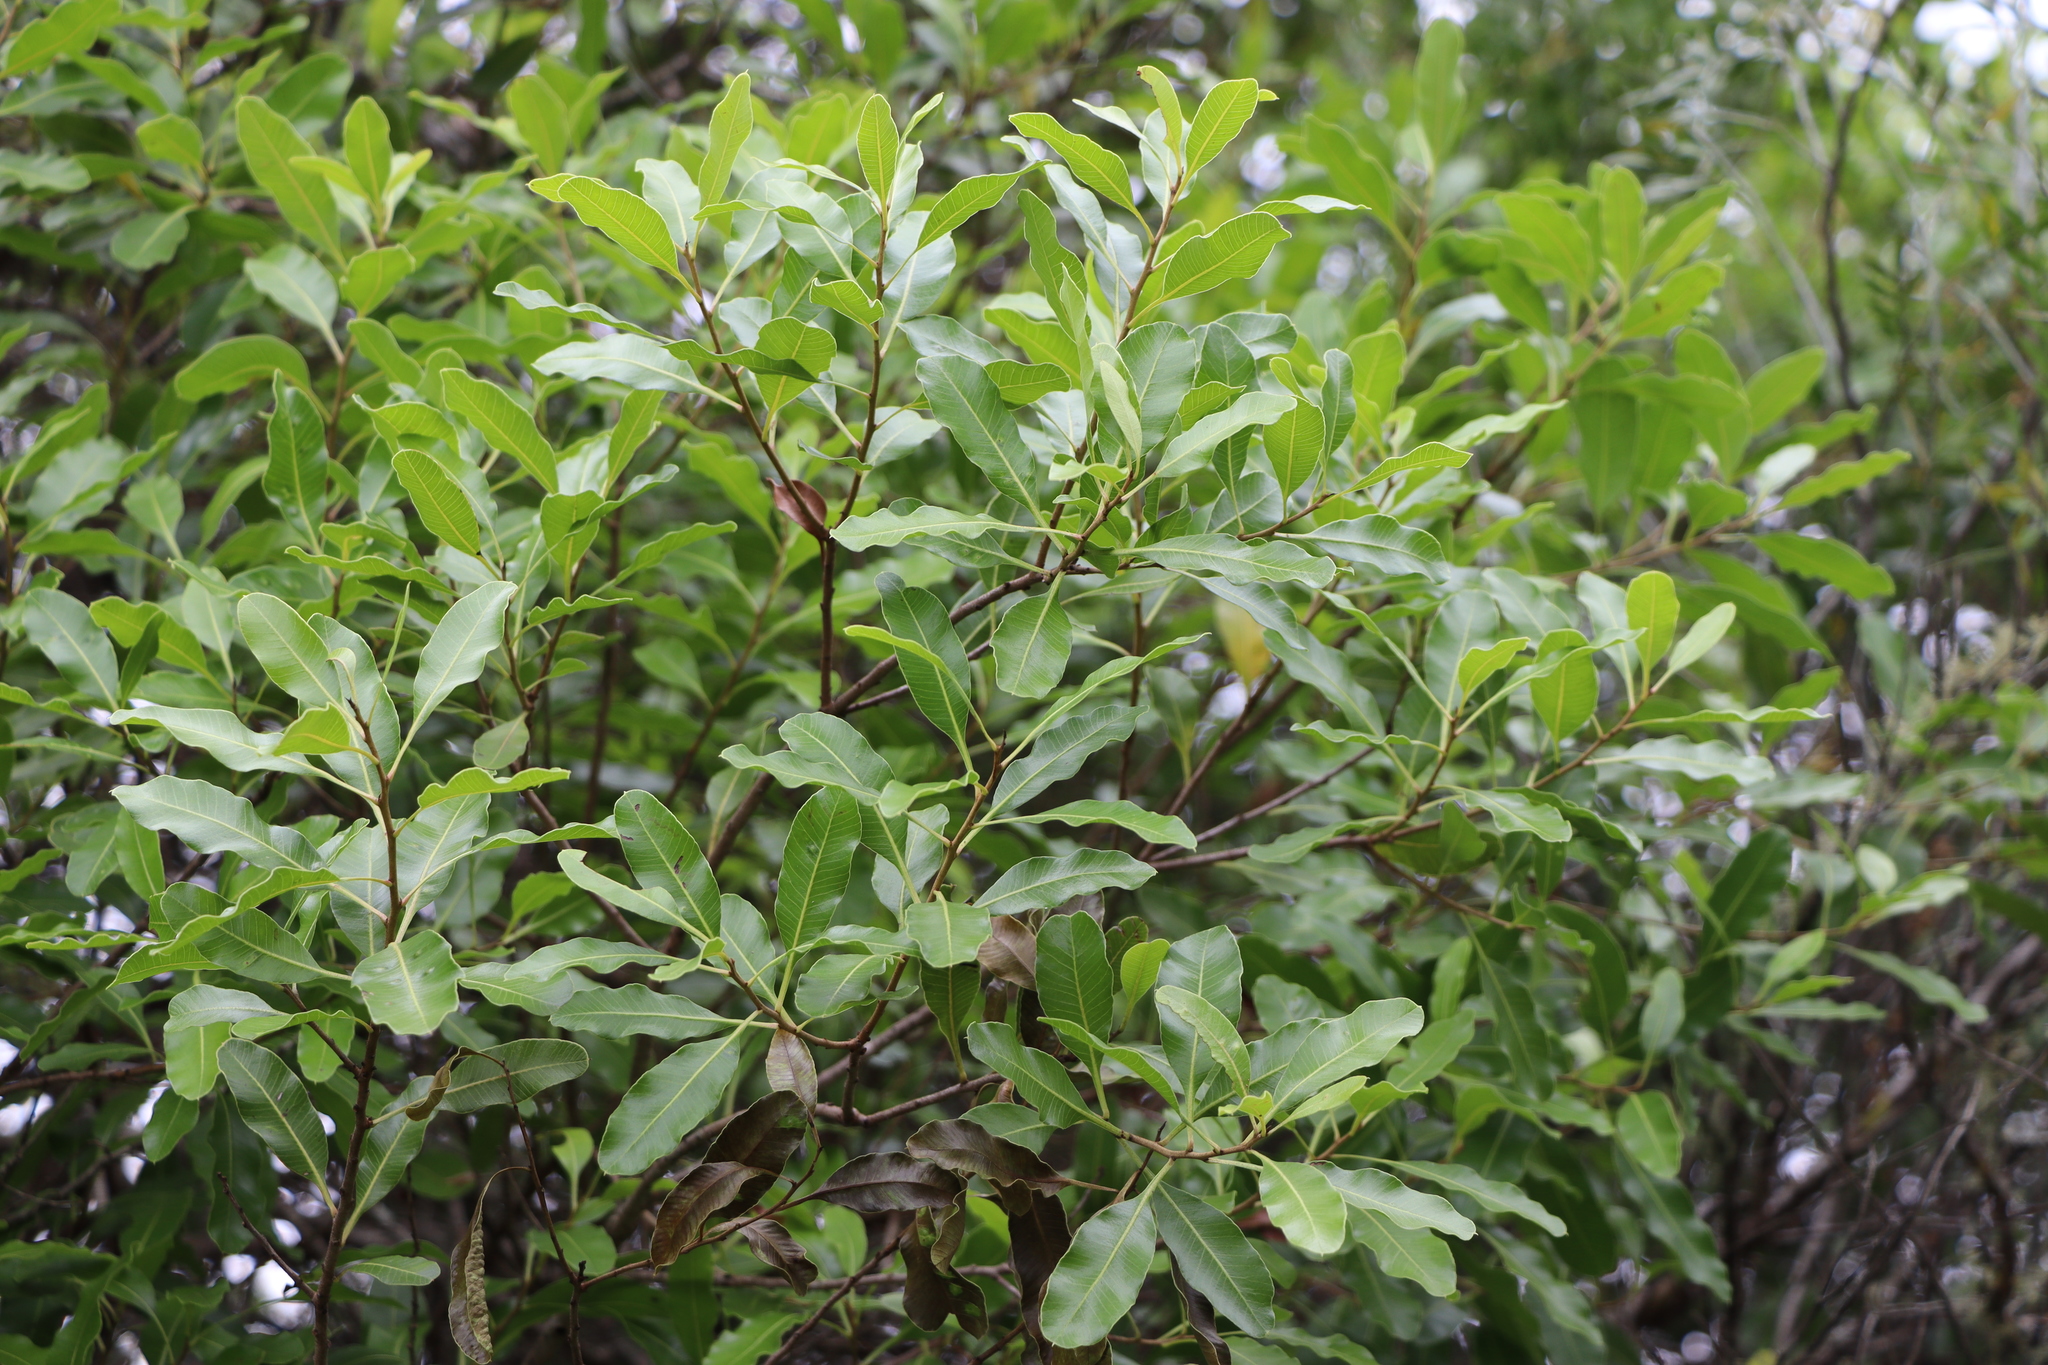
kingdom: Plantae
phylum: Tracheophyta
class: Magnoliopsida
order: Sapindales
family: Anacardiaceae
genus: Lithraea
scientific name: Lithraea brasiliensis
